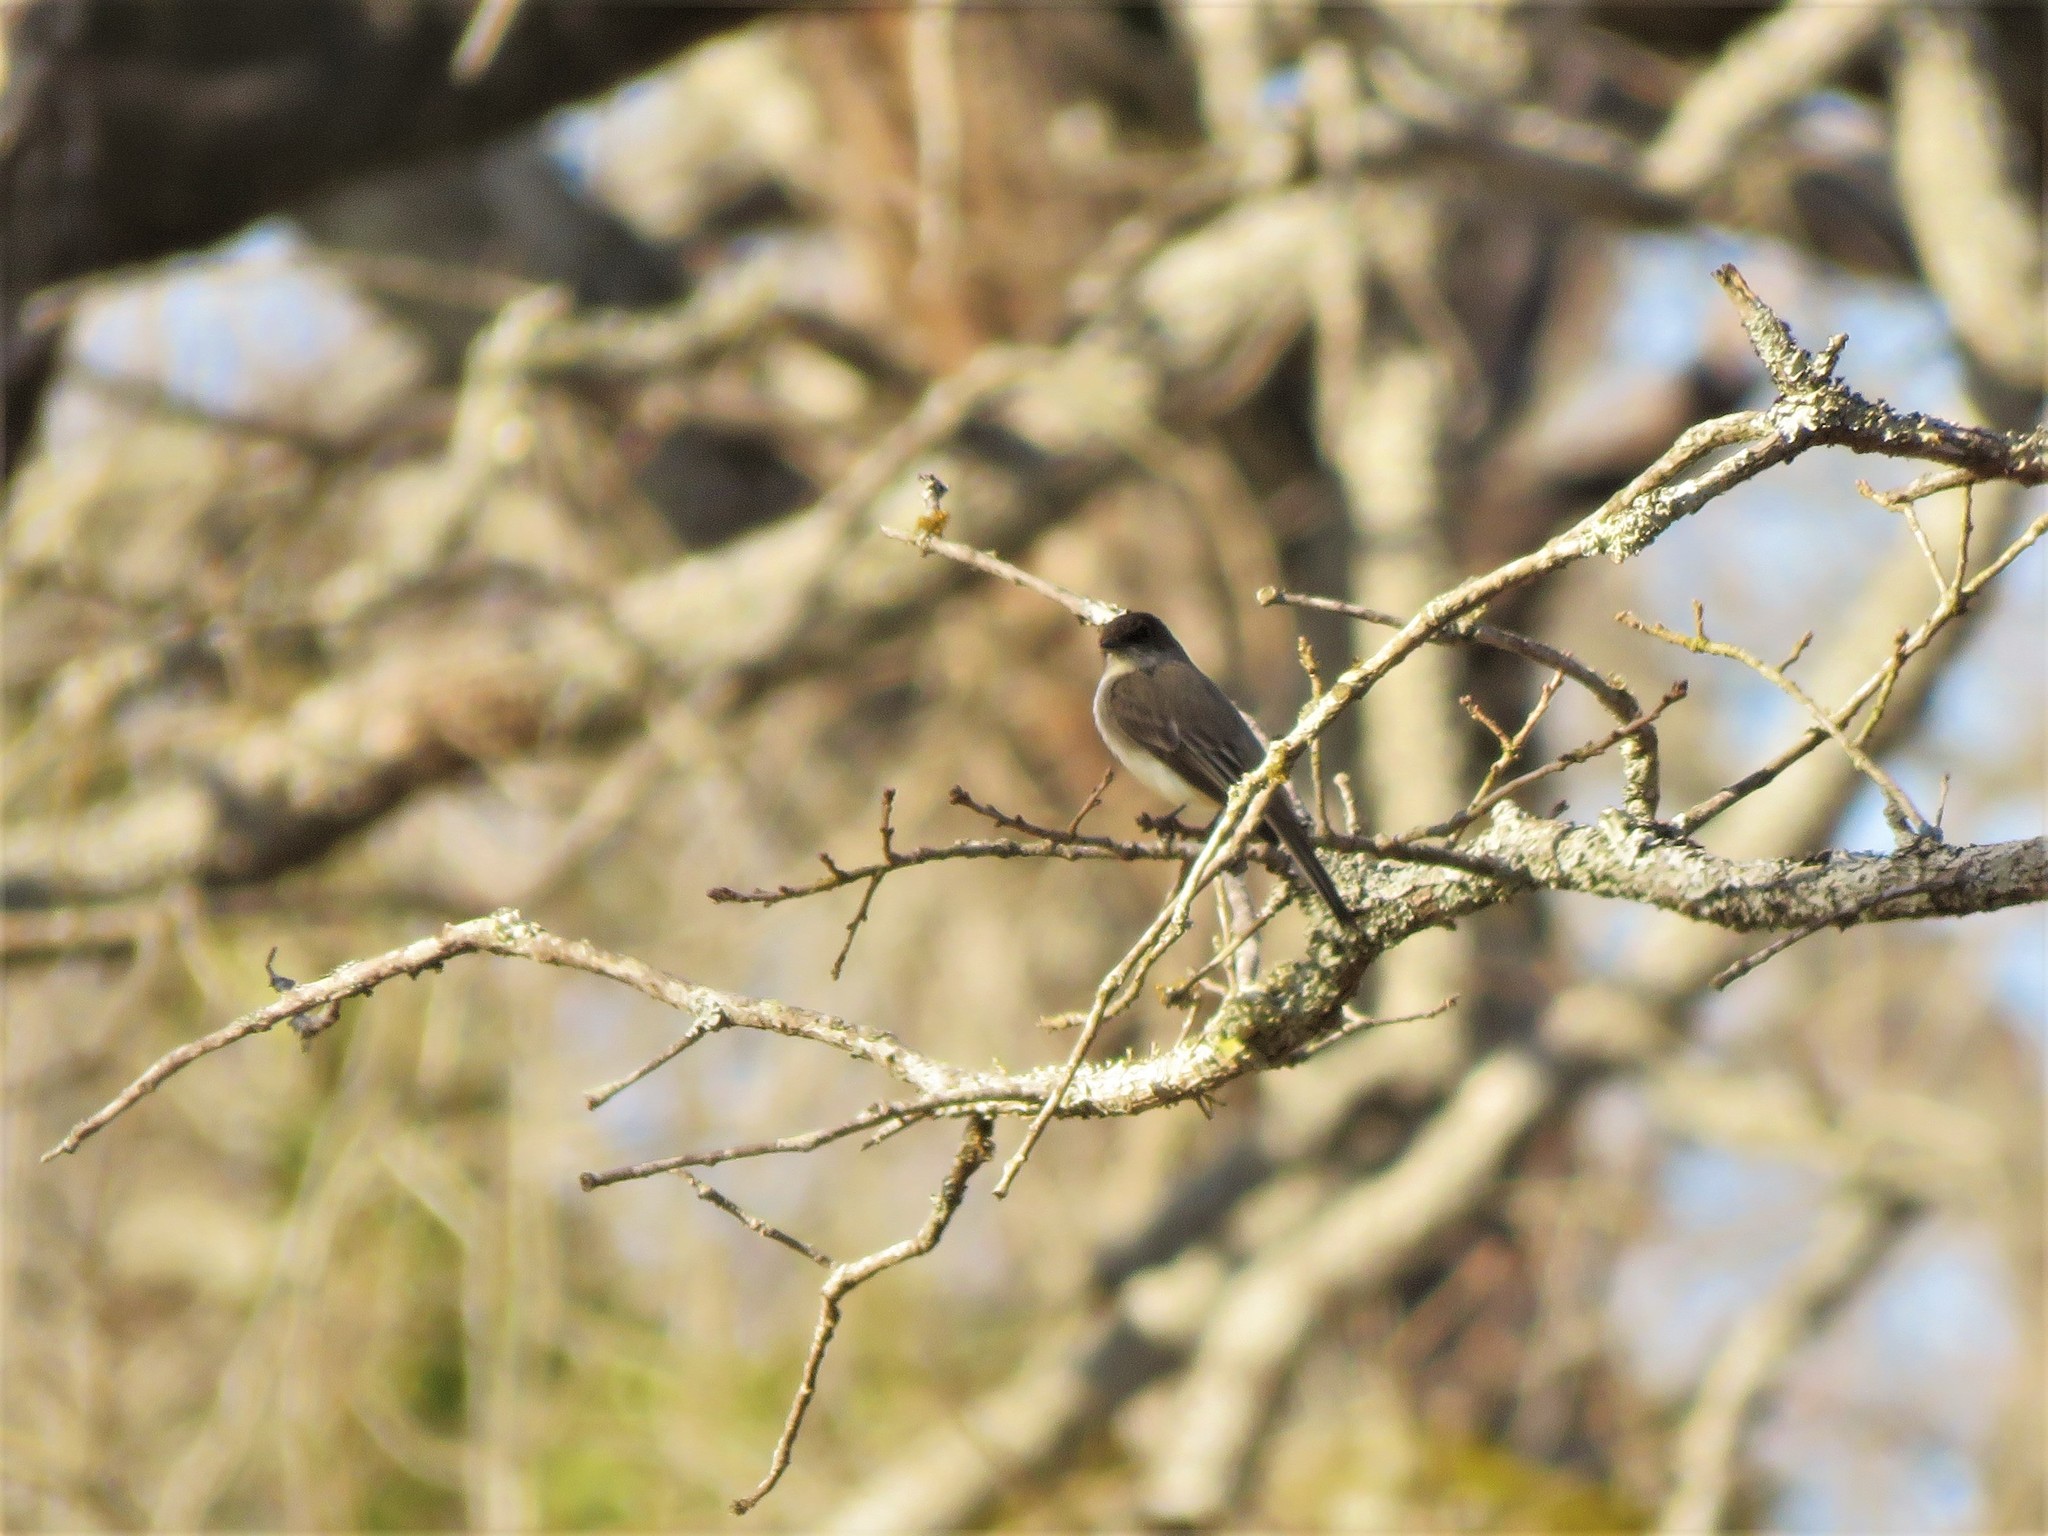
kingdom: Animalia
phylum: Chordata
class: Aves
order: Passeriformes
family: Tyrannidae
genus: Sayornis
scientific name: Sayornis phoebe
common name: Eastern phoebe
